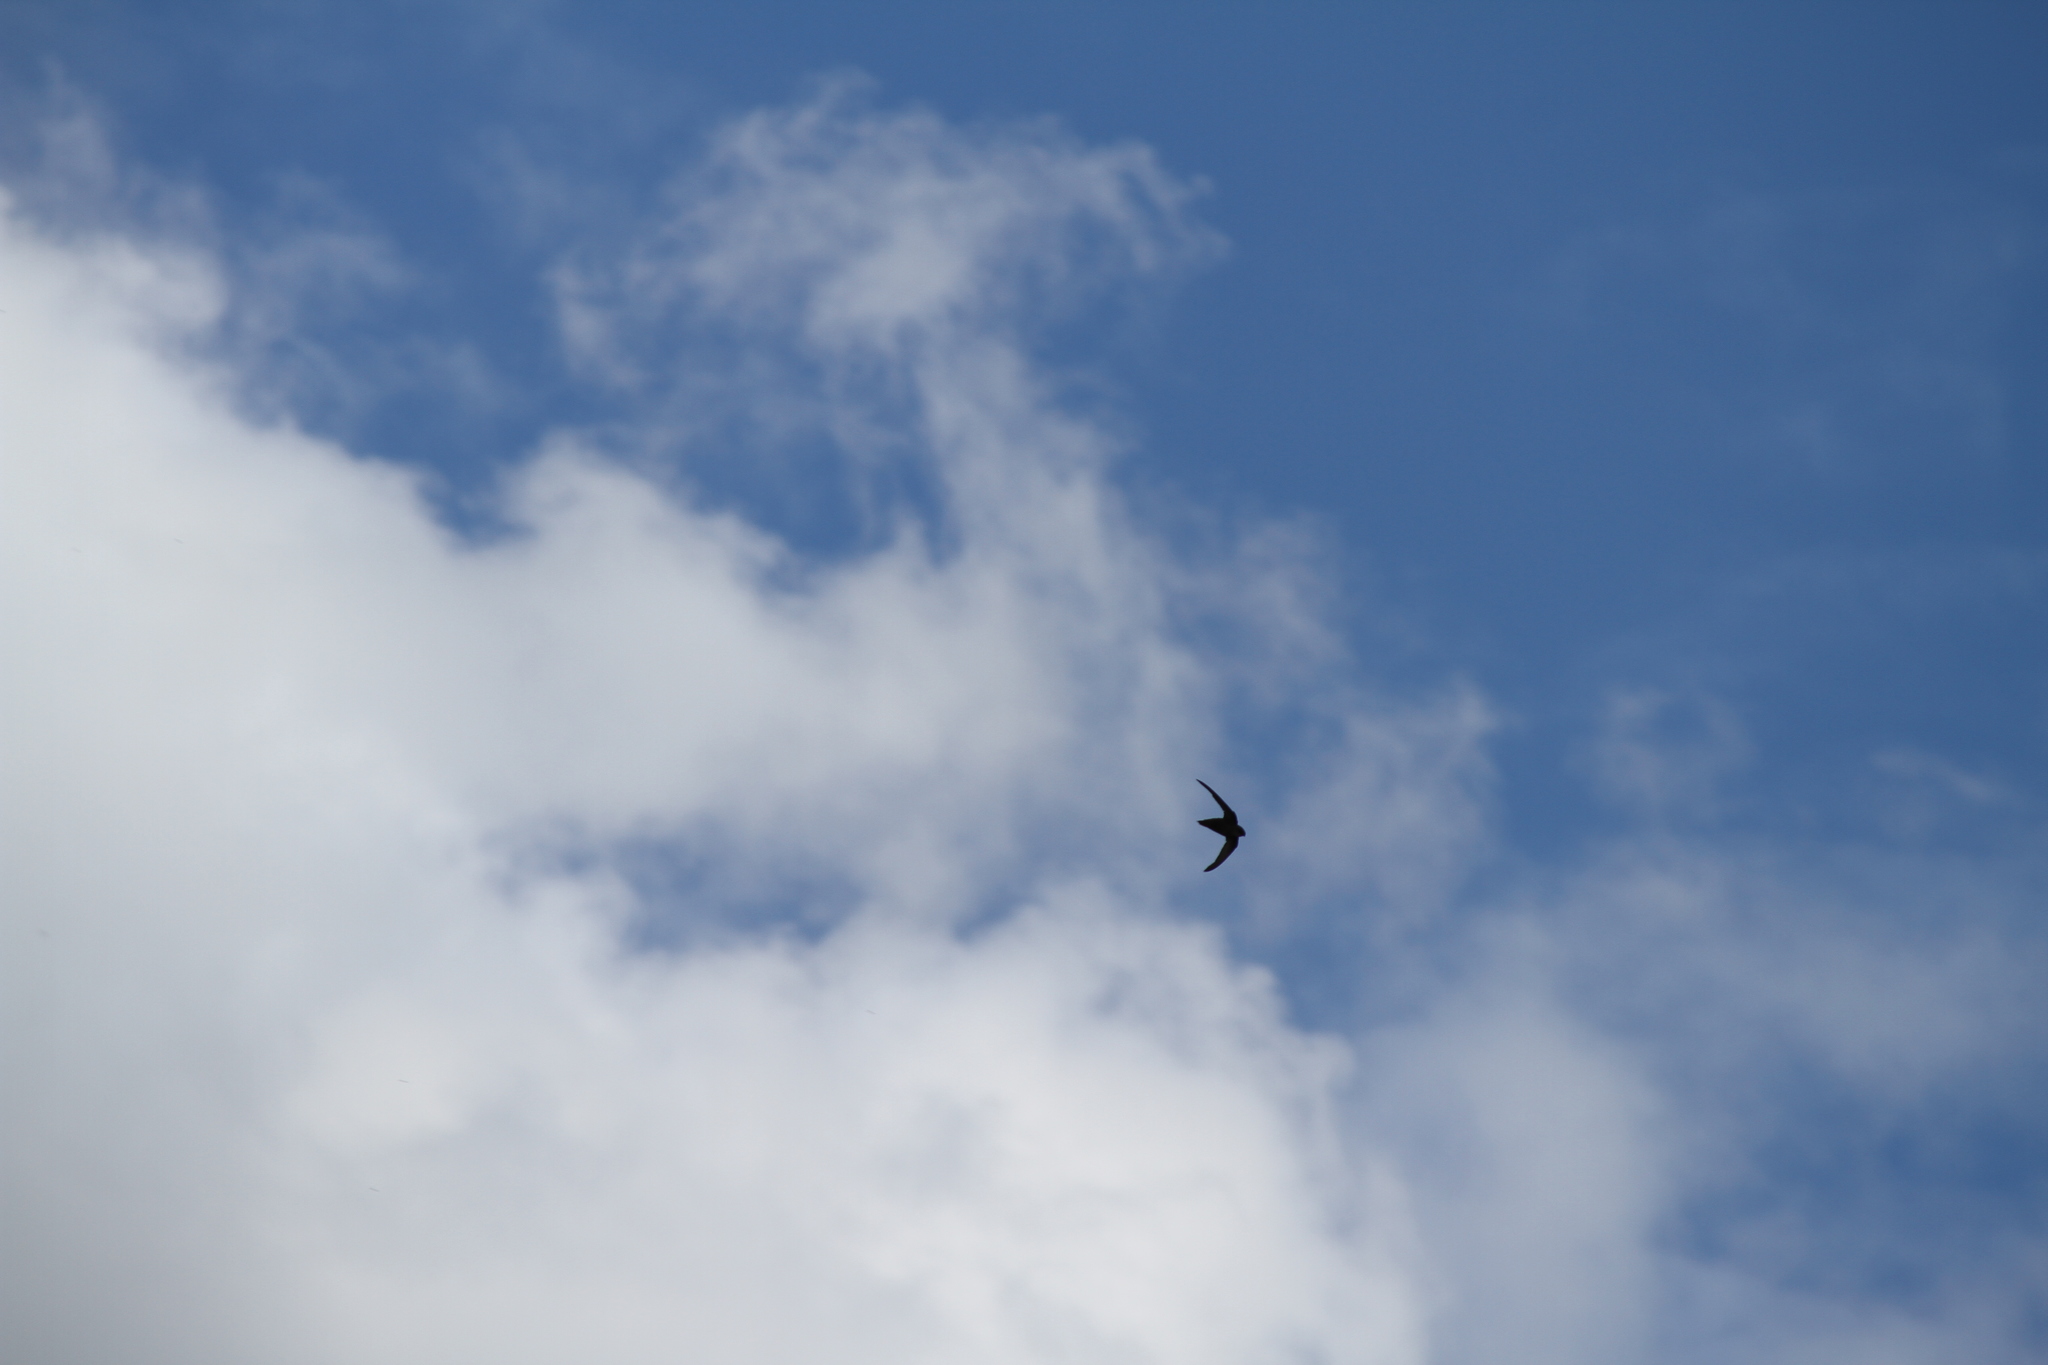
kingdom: Animalia
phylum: Chordata
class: Aves
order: Apodiformes
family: Apodidae
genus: Chaetura
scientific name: Chaetura pelagica
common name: Chimney swift
